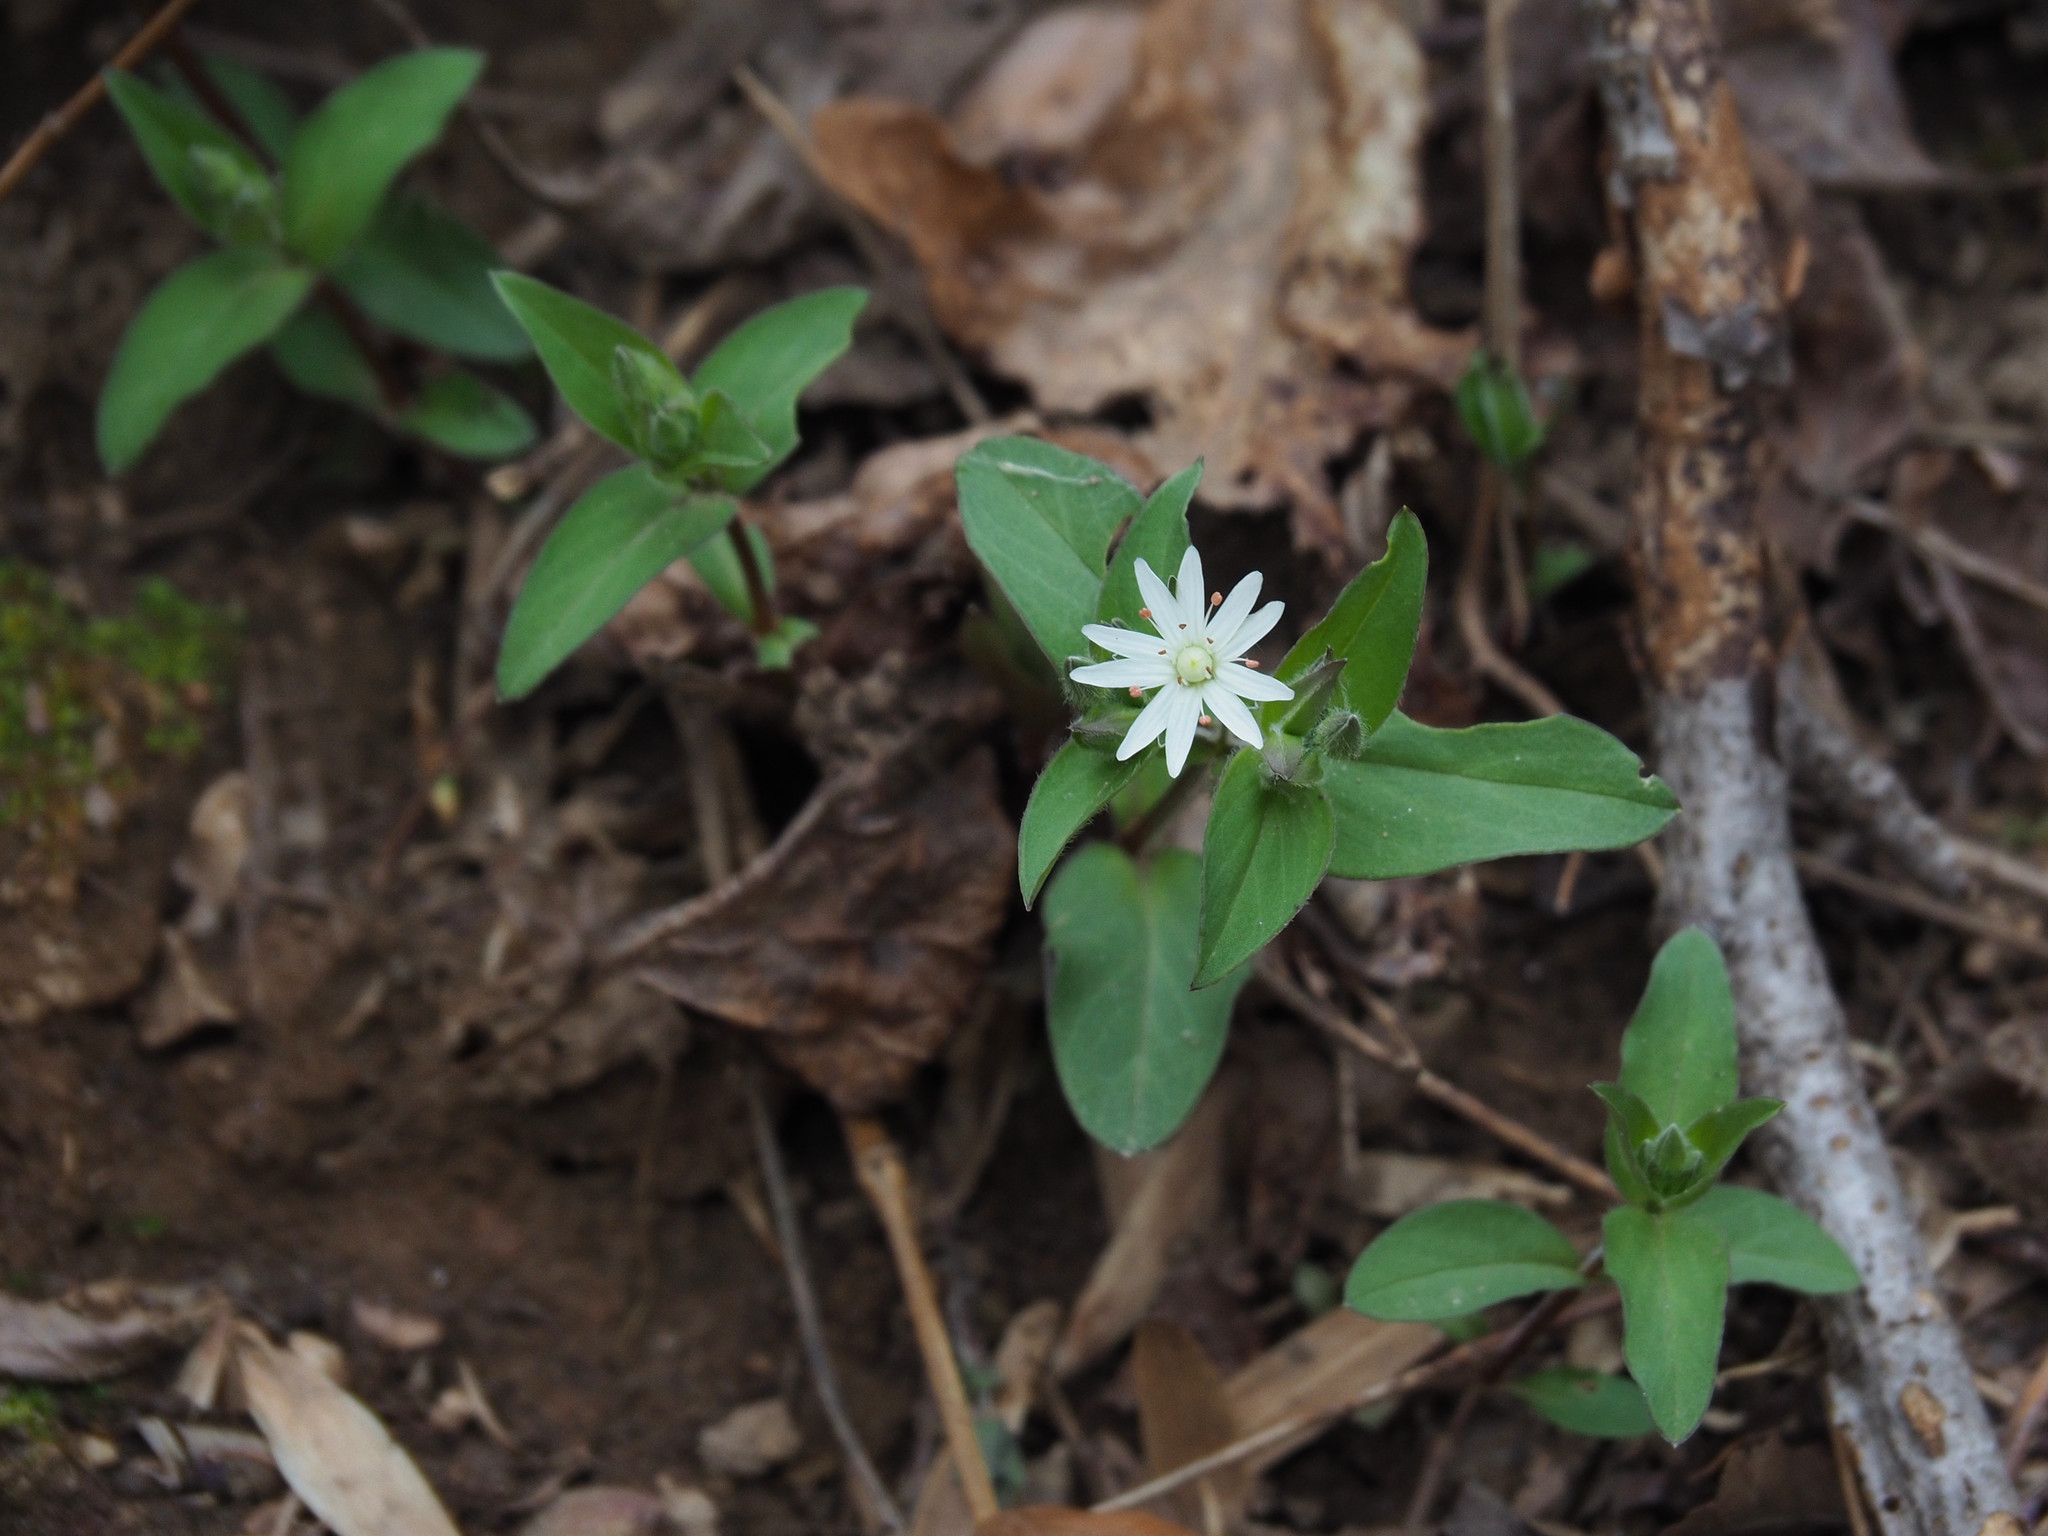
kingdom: Plantae
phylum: Tracheophyta
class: Magnoliopsida
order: Caryophyllales
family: Caryophyllaceae
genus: Stellaria
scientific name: Stellaria media
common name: Common chickweed
